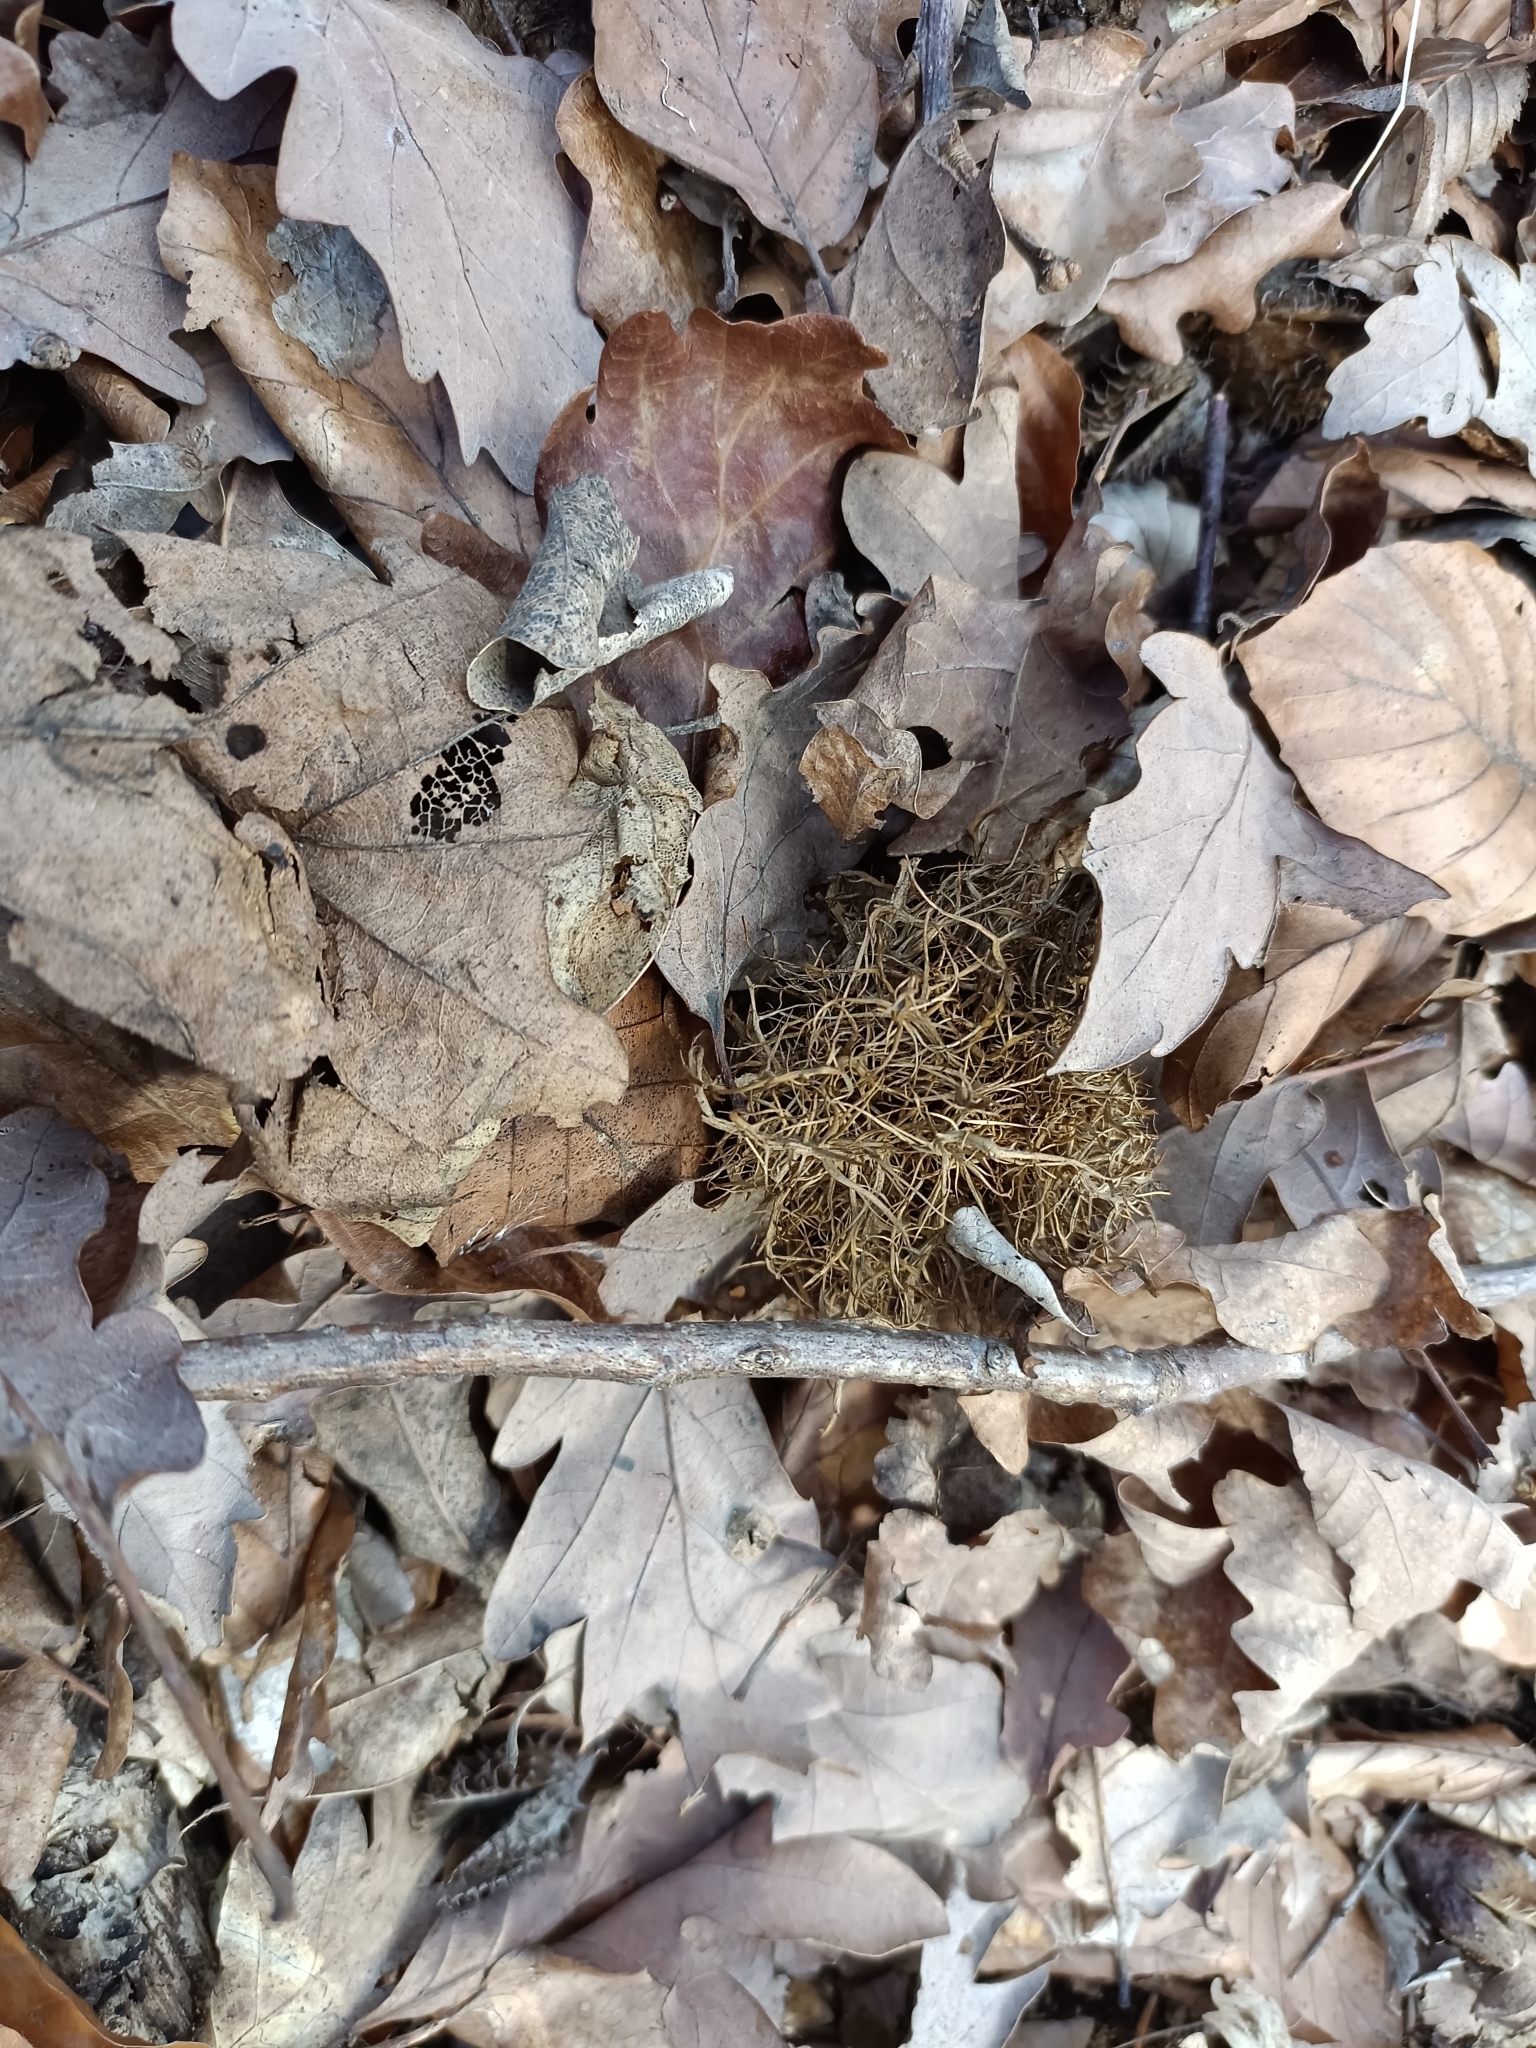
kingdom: Animalia
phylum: Arthropoda
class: Insecta
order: Hymenoptera
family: Cynipidae
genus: Andricus
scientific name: Andricus caputmedusae
